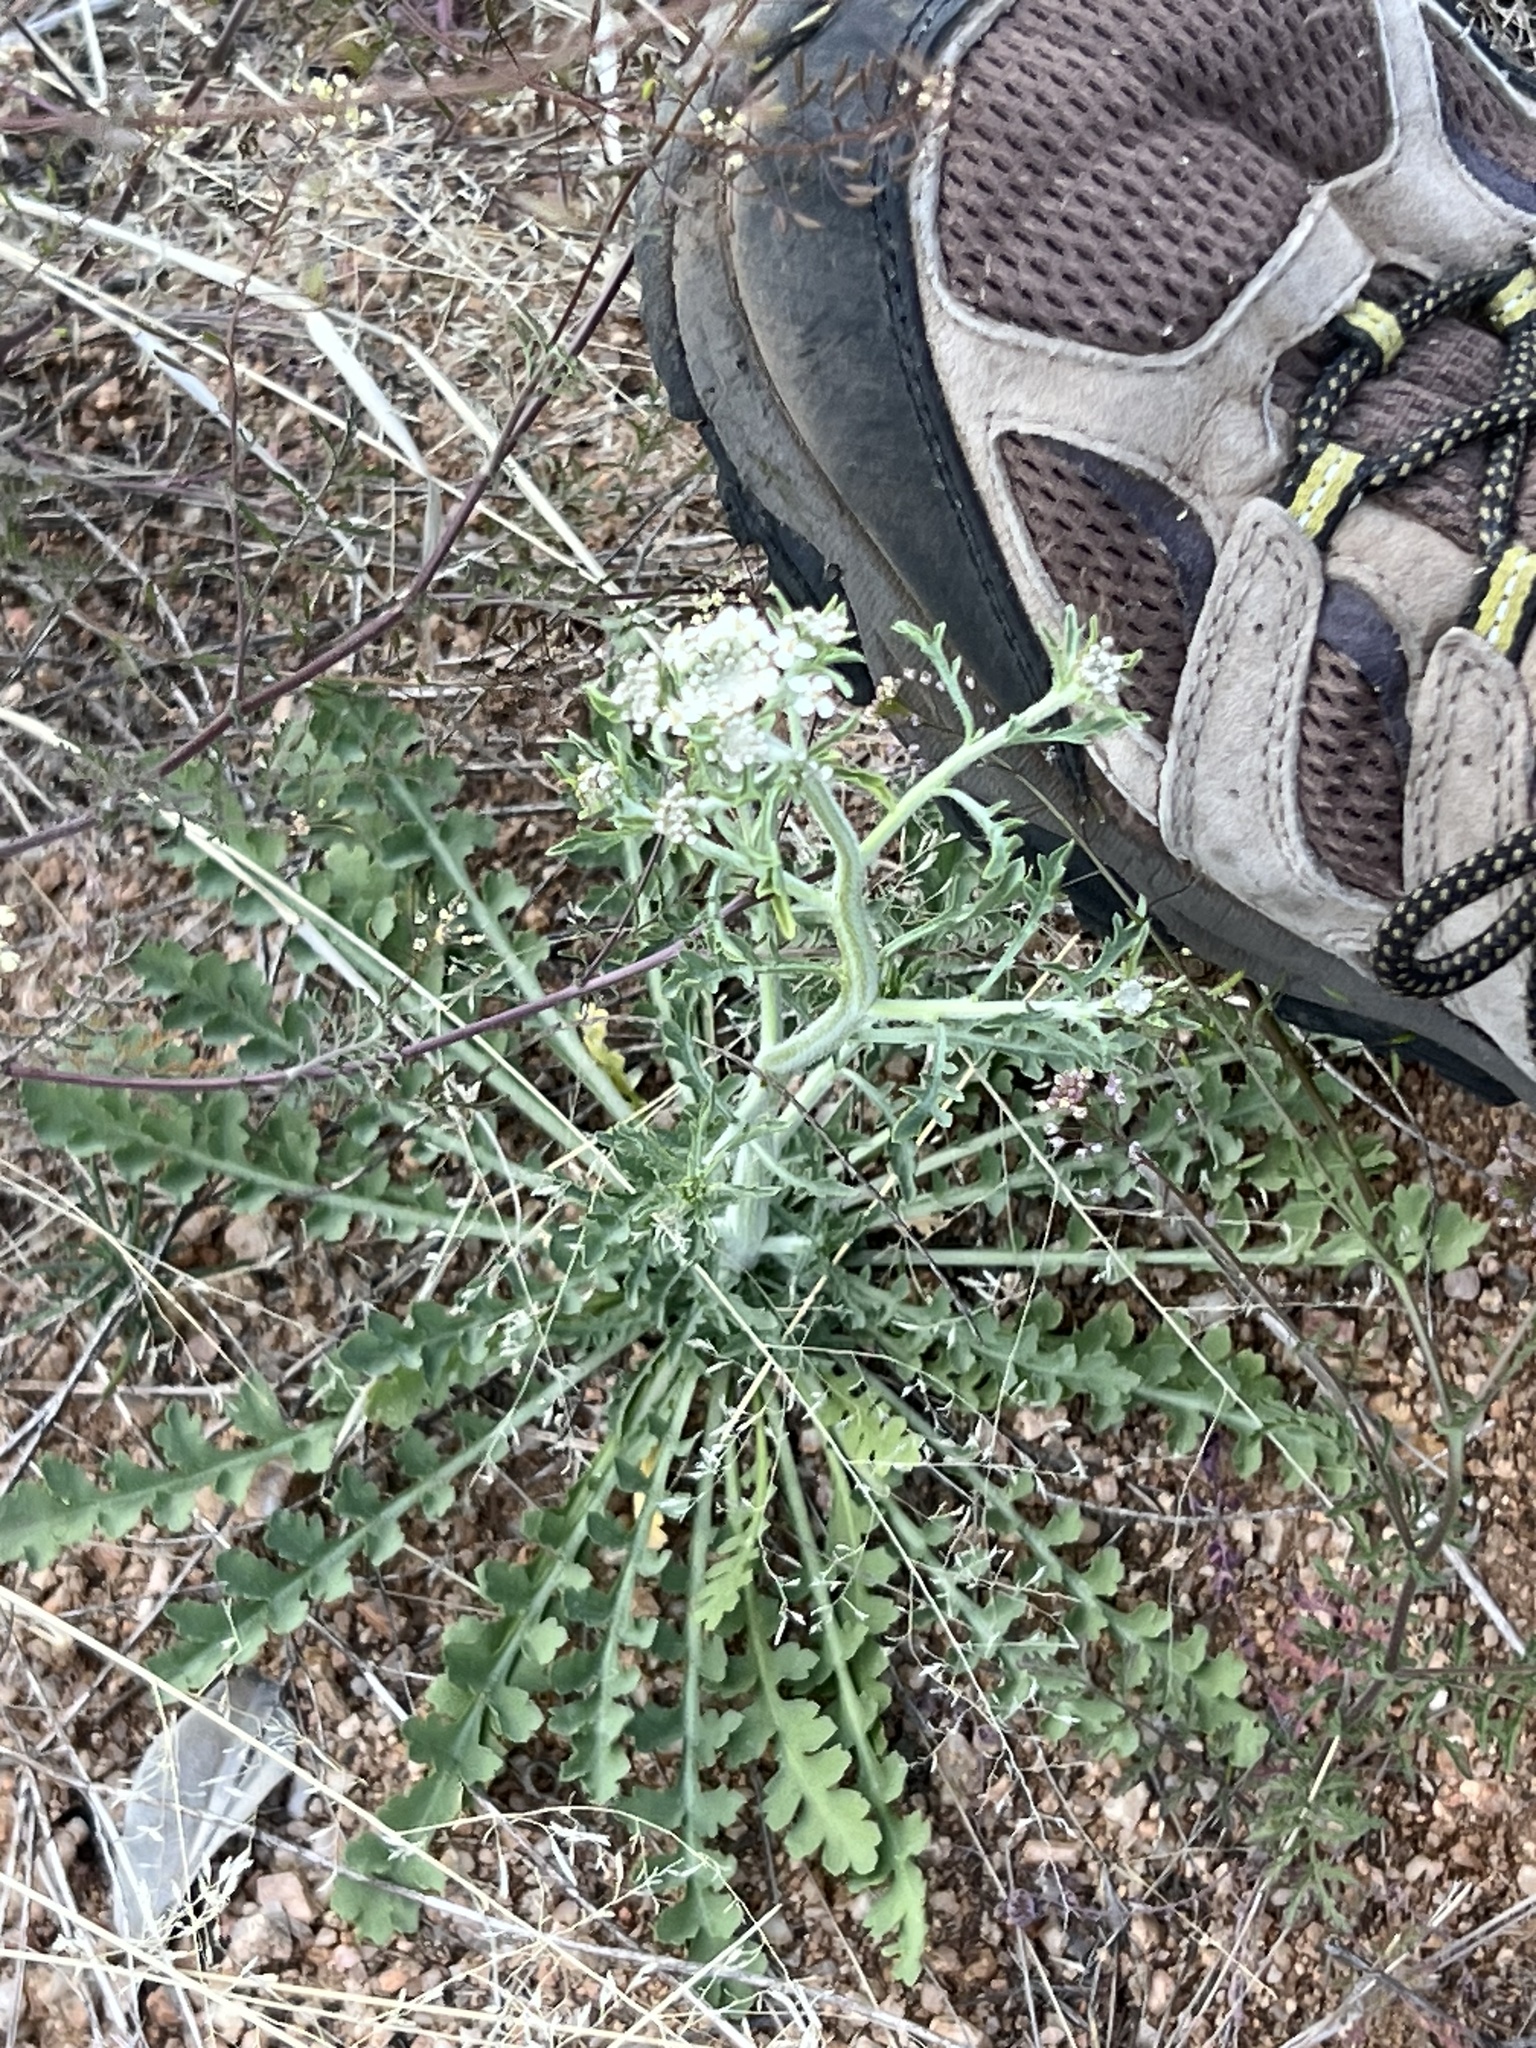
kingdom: Plantae
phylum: Tracheophyta
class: Magnoliopsida
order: Brassicales
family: Brassicaceae
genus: Lepidium
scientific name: Lepidium thurberi
